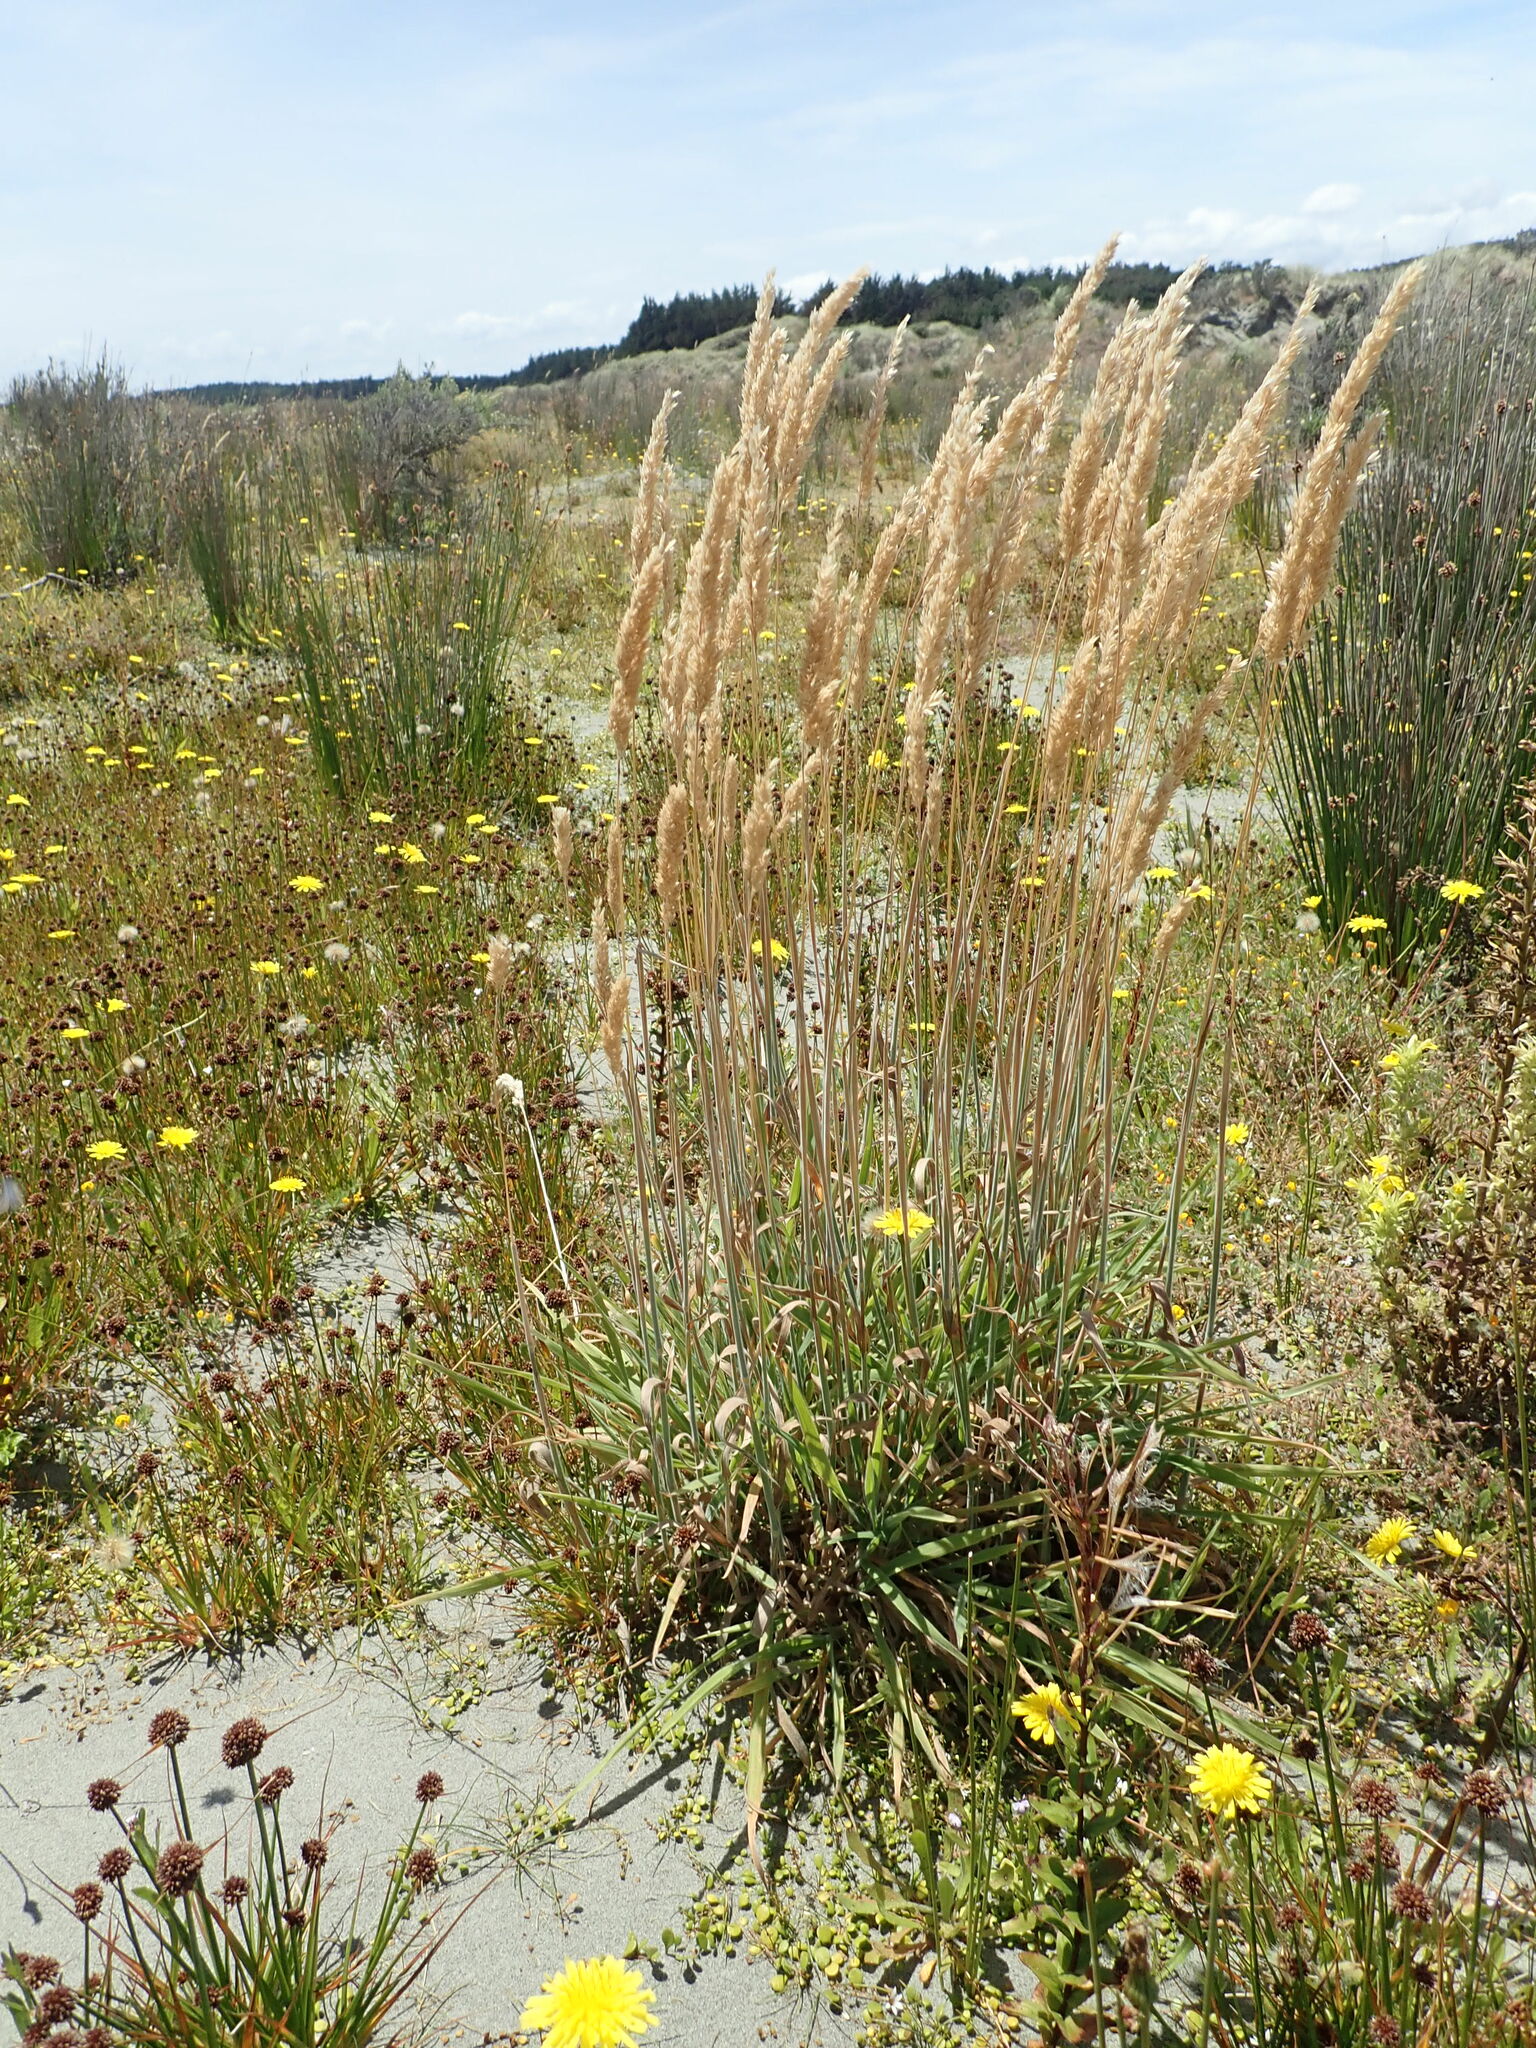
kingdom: Plantae
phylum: Tracheophyta
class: Liliopsida
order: Poales
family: Poaceae
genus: Holcus
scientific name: Holcus lanatus
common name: Yorkshire-fog
